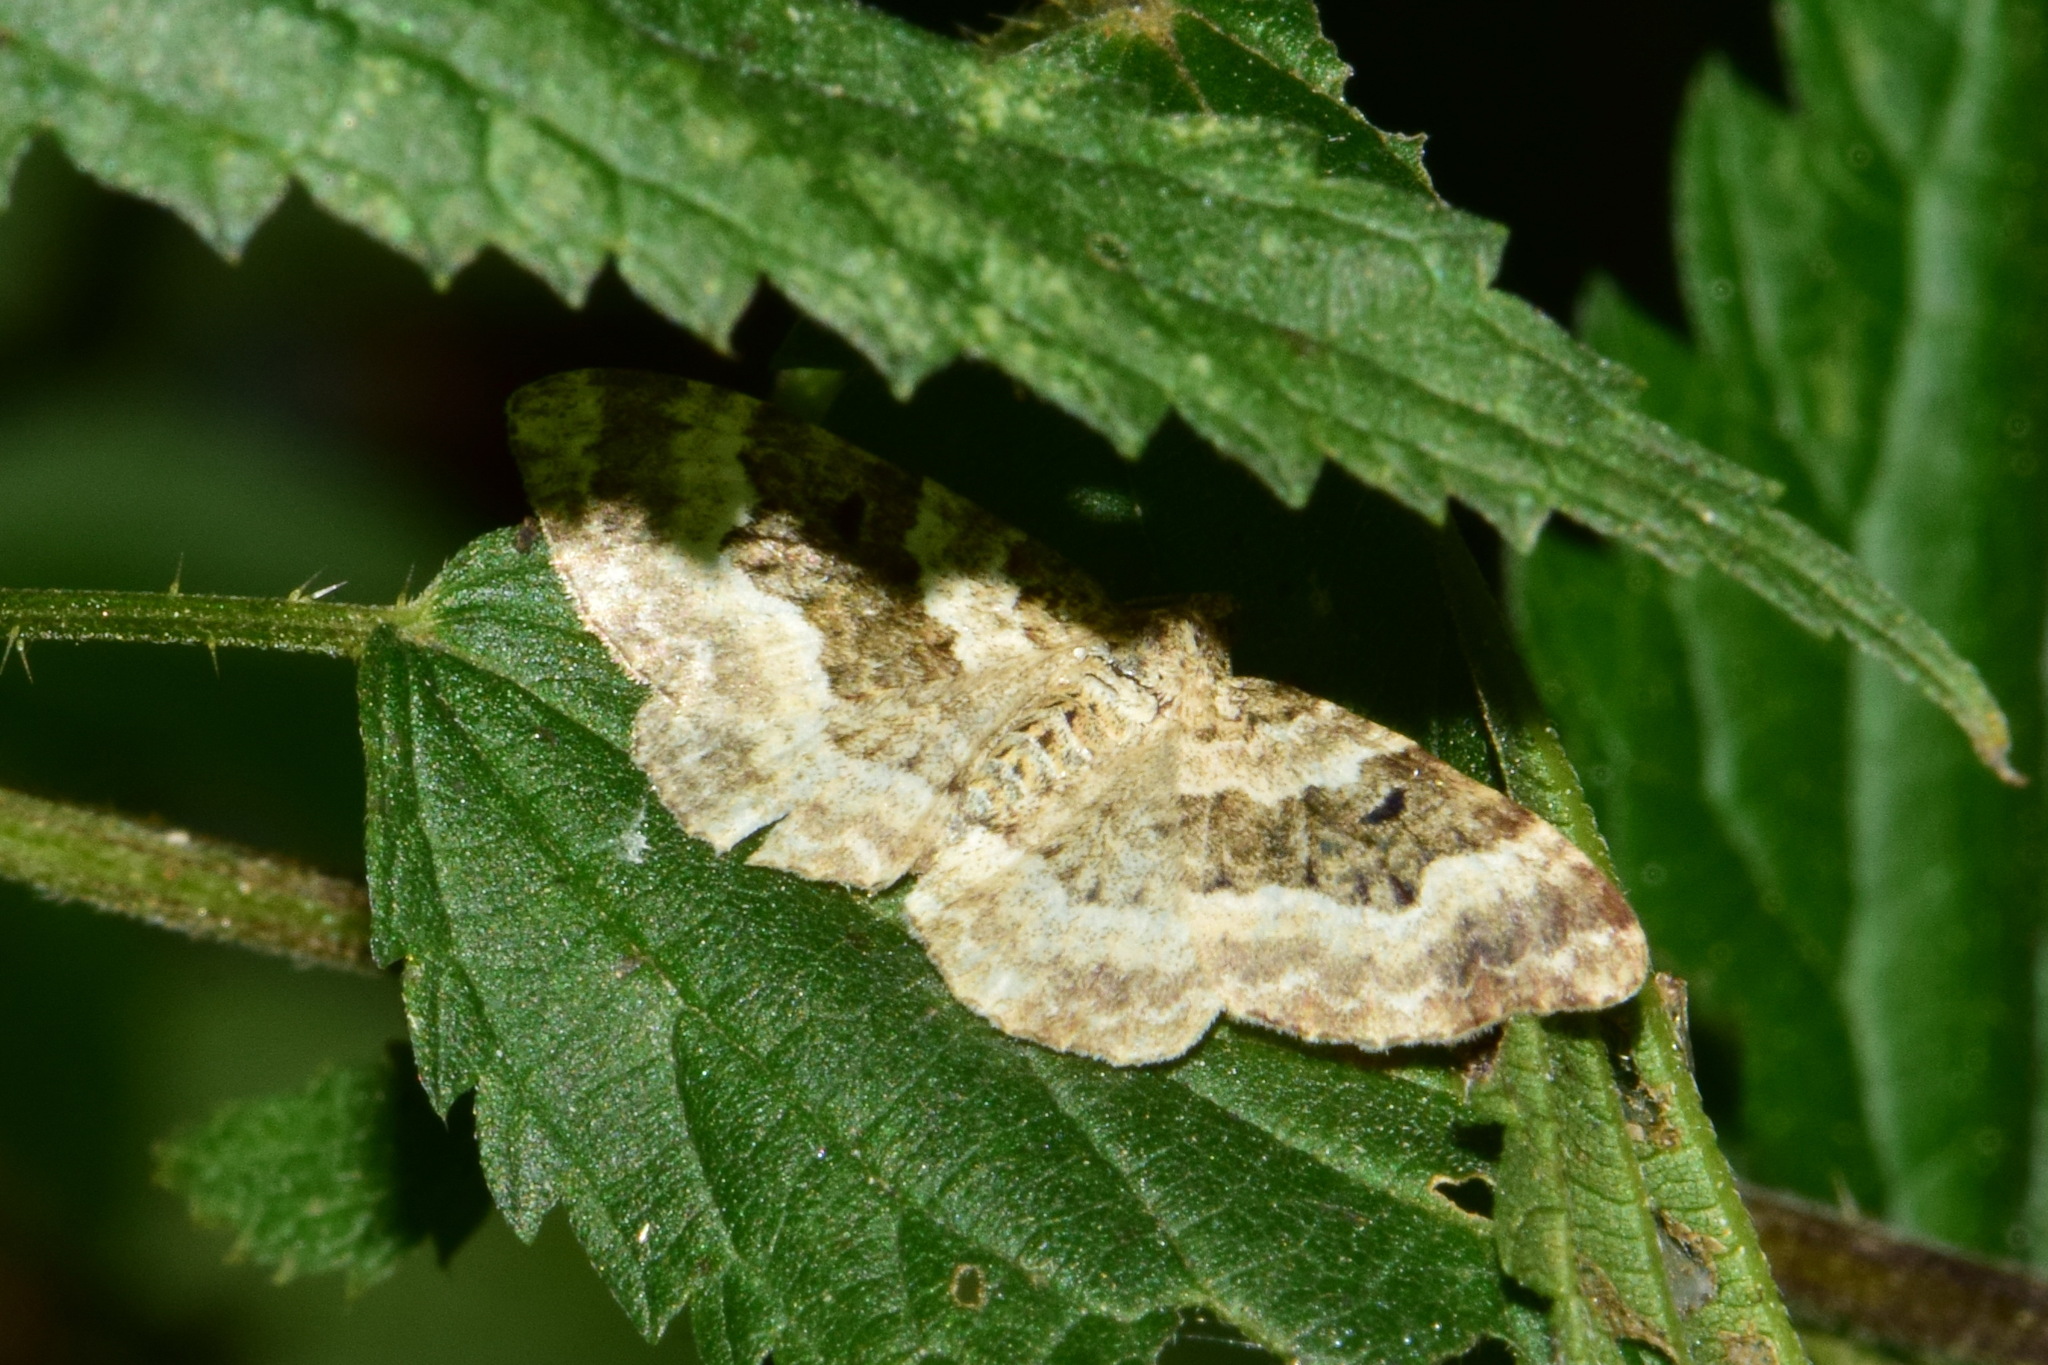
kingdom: Animalia
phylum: Arthropoda
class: Insecta
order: Lepidoptera
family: Geometridae
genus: Epirrhoe
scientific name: Epirrhoe alternata
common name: Common carpet
